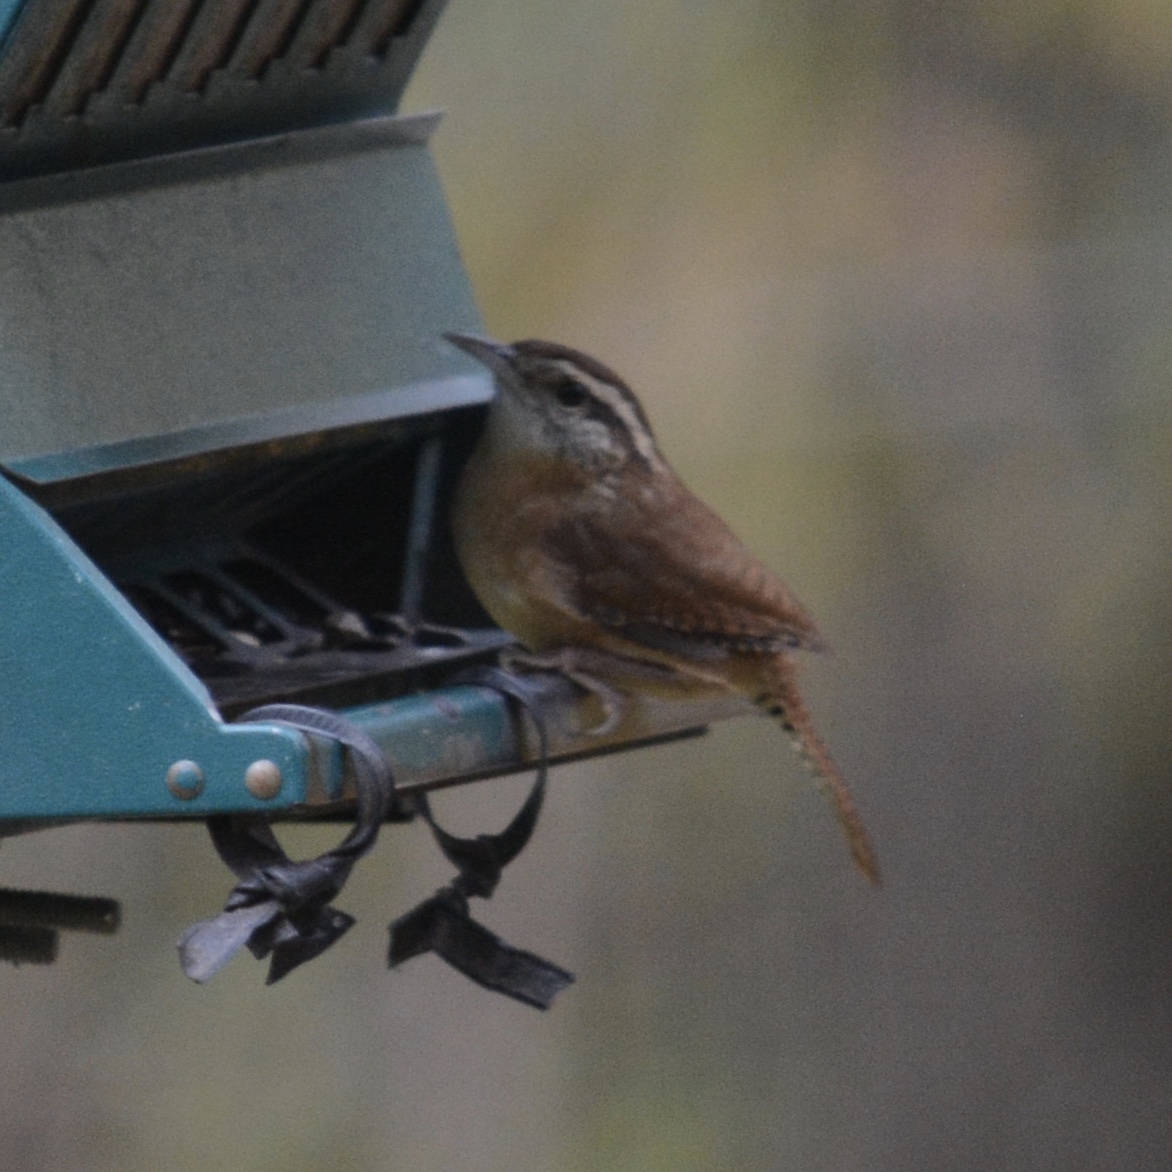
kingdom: Animalia
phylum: Chordata
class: Aves
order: Passeriformes
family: Troglodytidae
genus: Thryothorus
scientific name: Thryothorus ludovicianus
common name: Carolina wren
